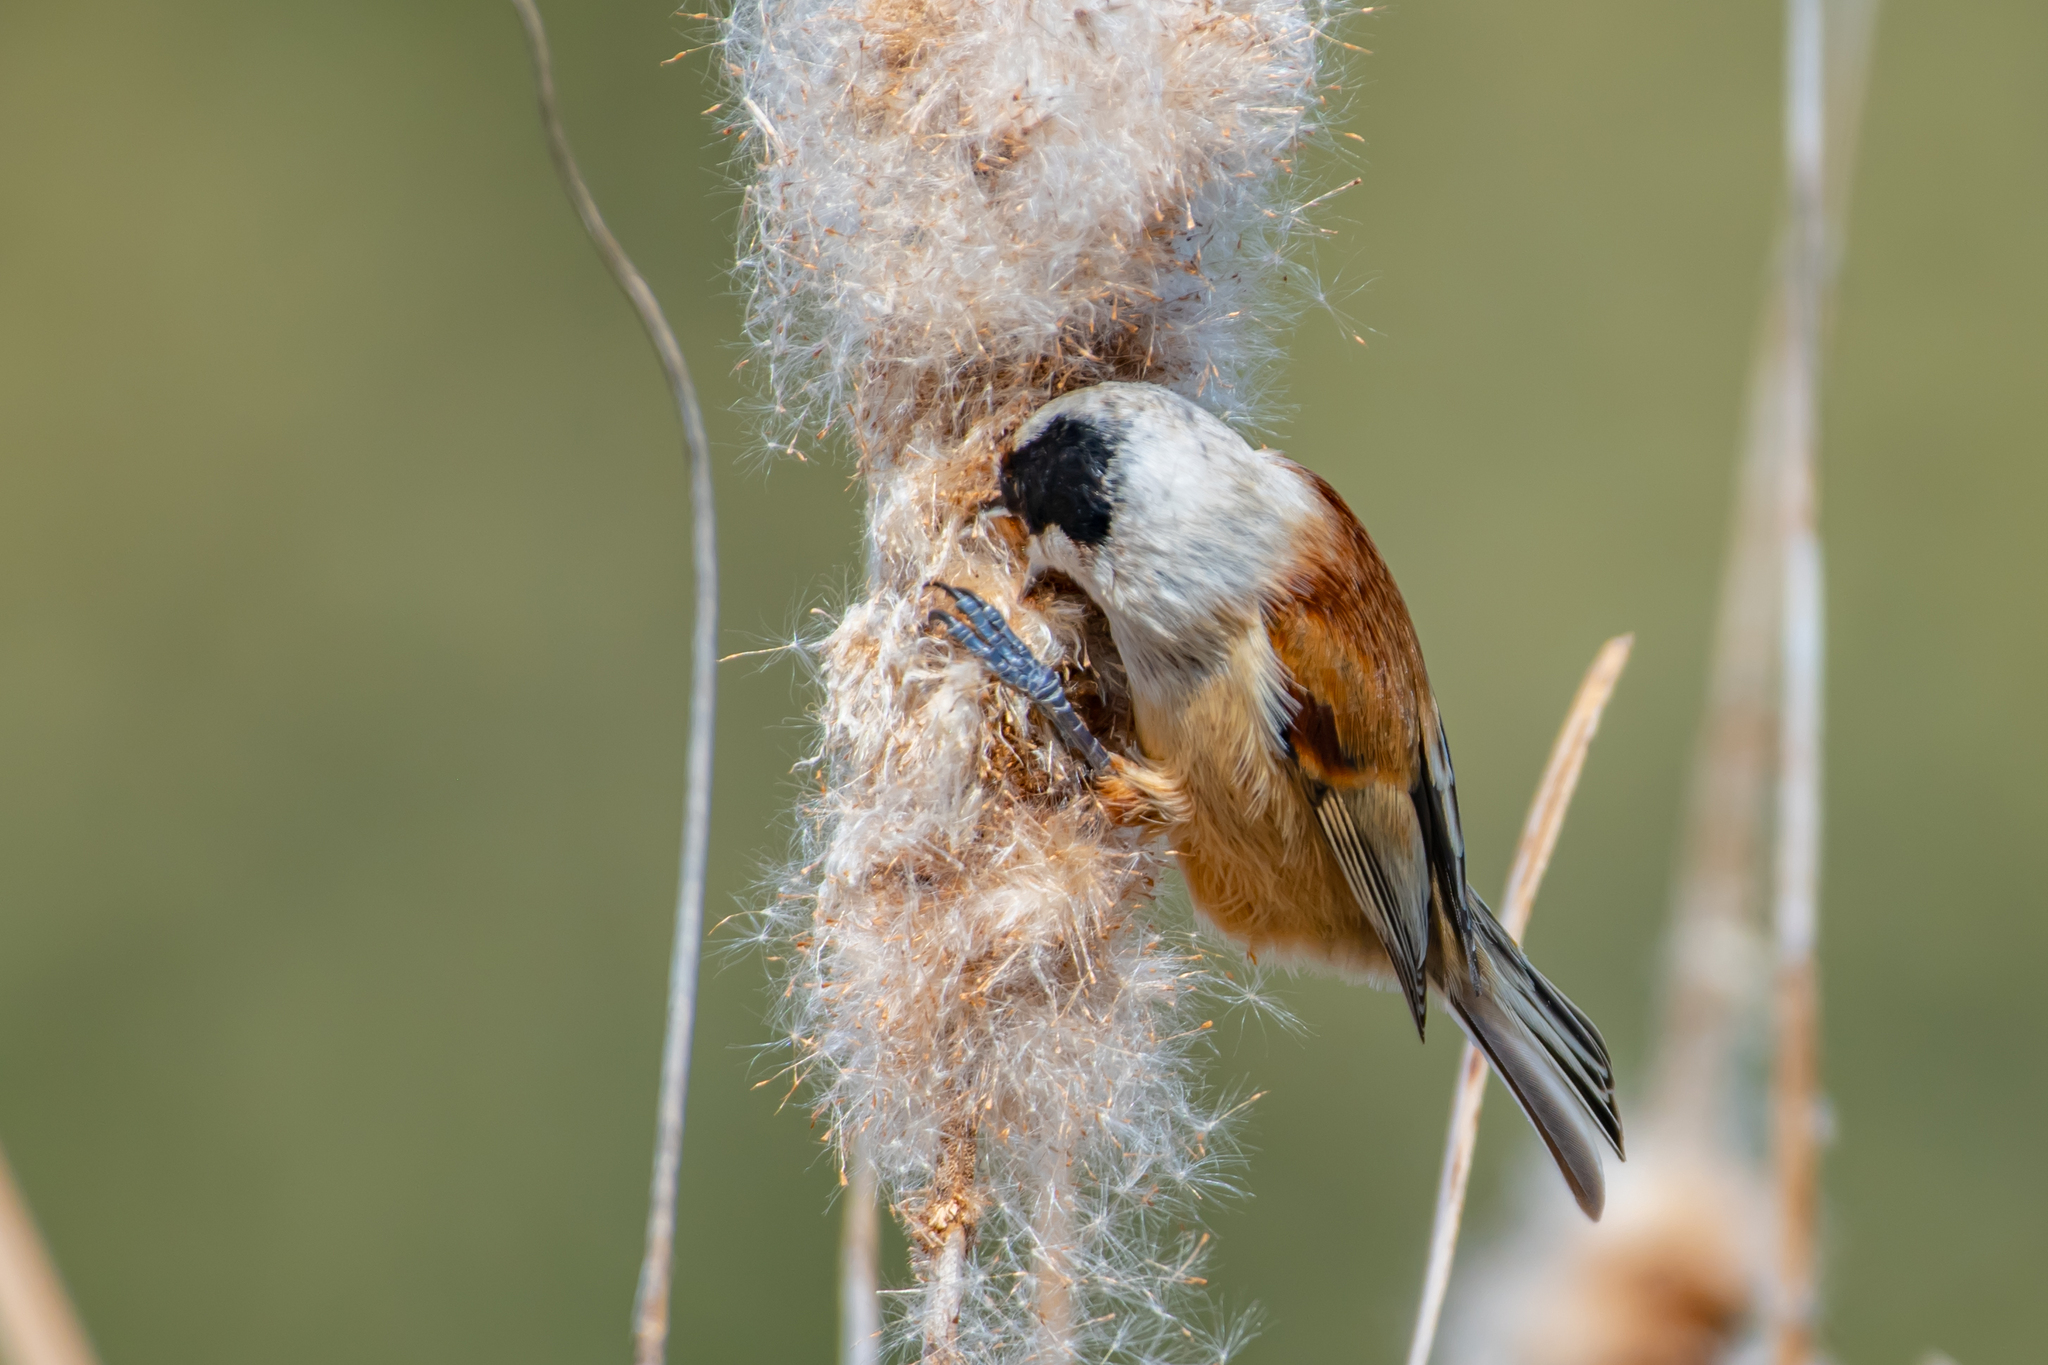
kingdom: Animalia
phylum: Chordata
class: Aves
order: Passeriformes
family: Remizidae
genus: Remiz
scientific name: Remiz pendulinus
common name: Eurasian penduline tit
